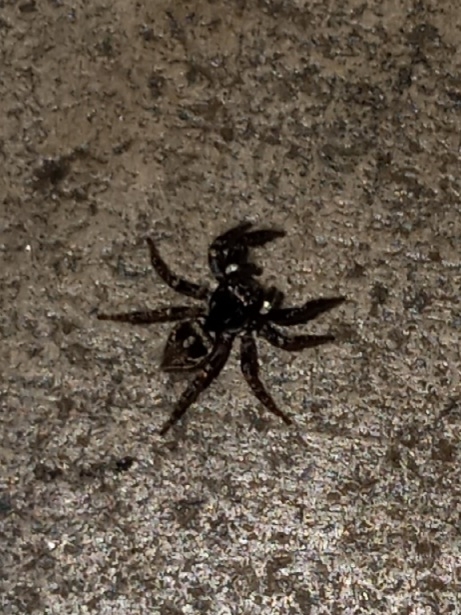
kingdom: Animalia
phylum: Arthropoda
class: Arachnida
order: Araneae
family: Salticidae
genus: Anasaitis
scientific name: Anasaitis canosa
